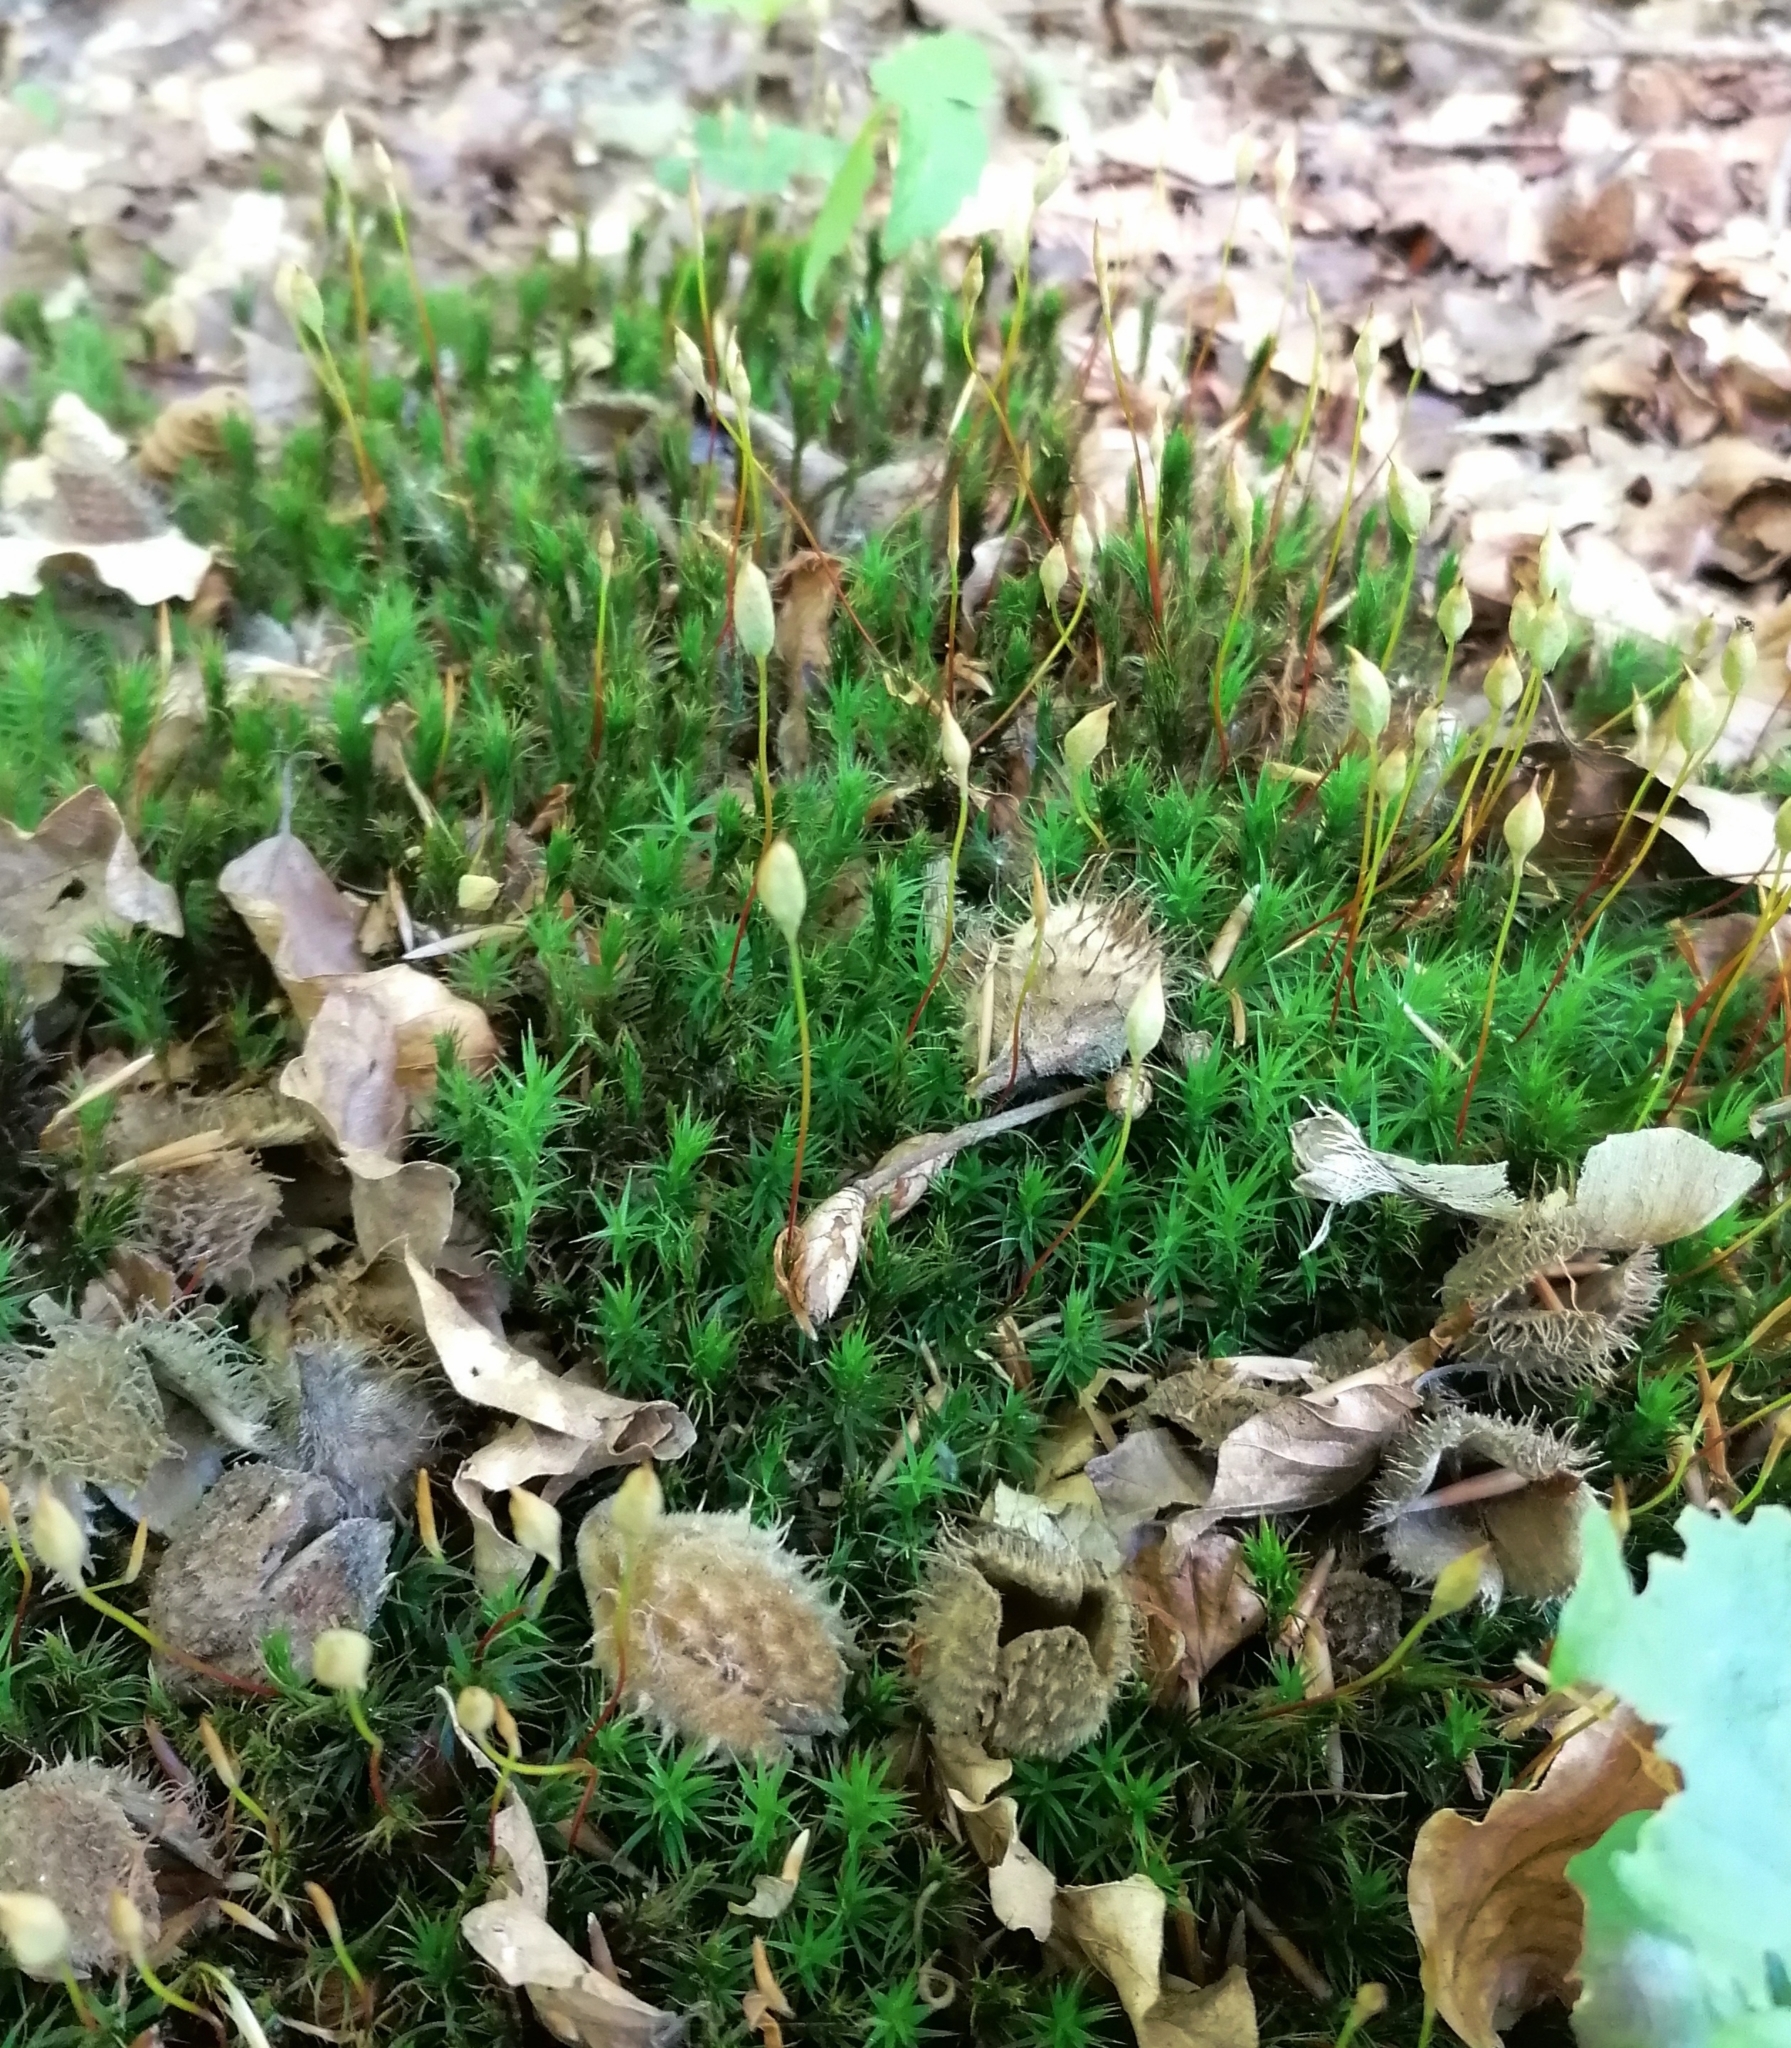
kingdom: Plantae
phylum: Bryophyta
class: Polytrichopsida
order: Polytrichales
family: Polytrichaceae
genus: Polytrichum
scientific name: Polytrichum formosum
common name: Bank haircap moss
